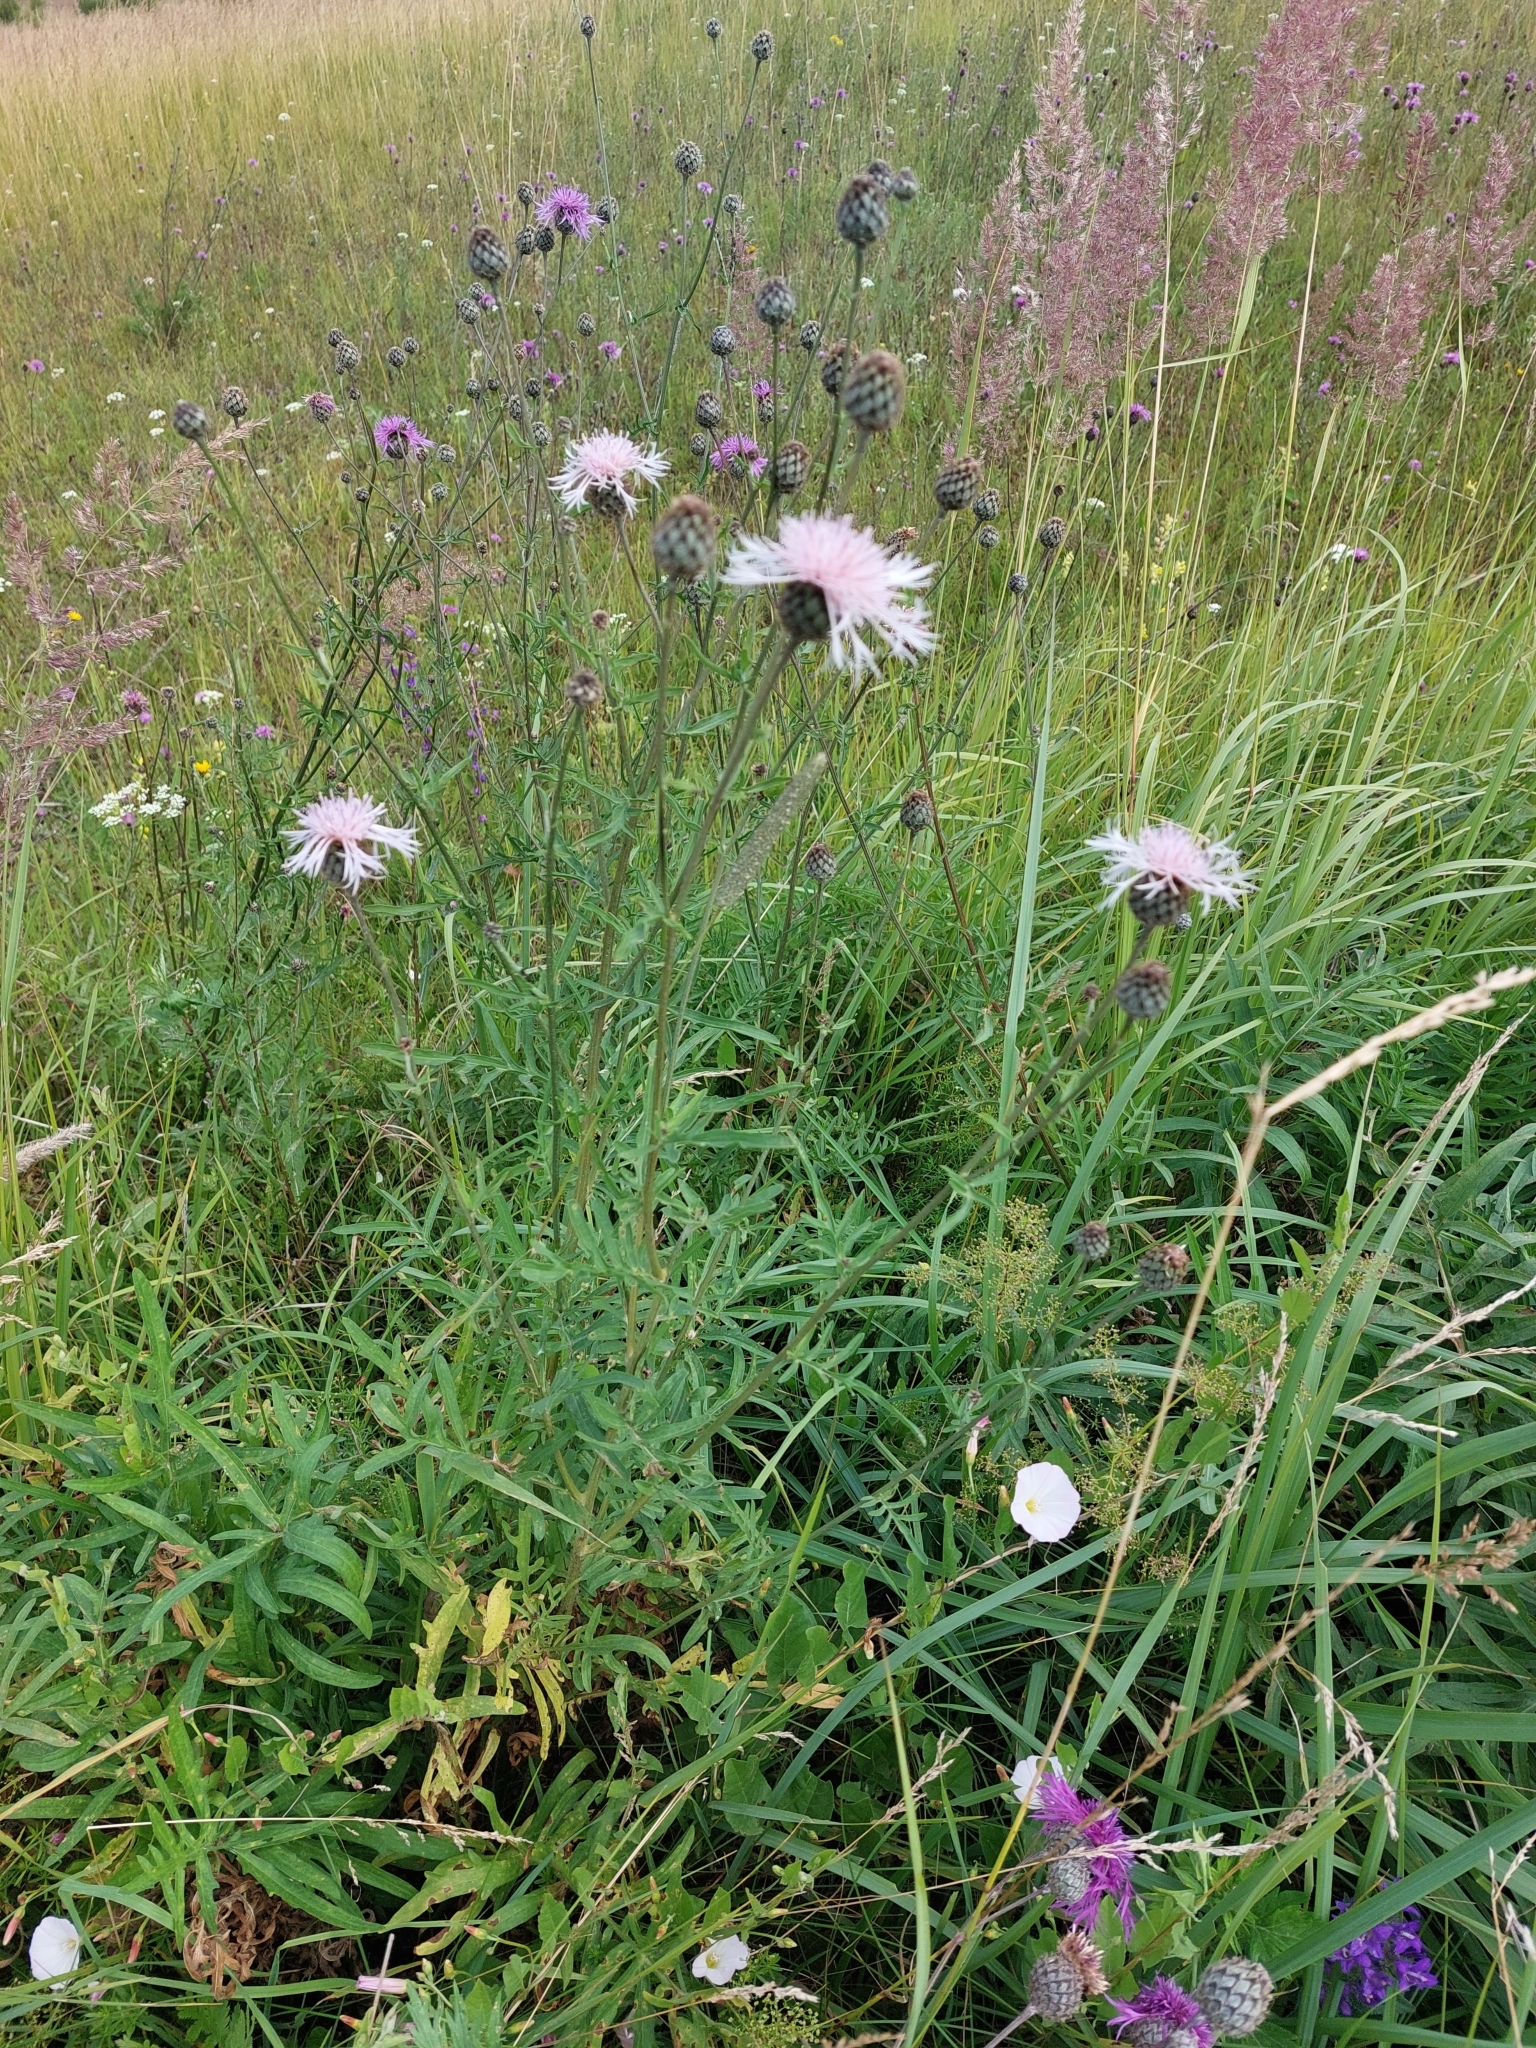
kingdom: Plantae
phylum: Tracheophyta
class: Magnoliopsida
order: Asterales
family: Asteraceae
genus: Centaurea
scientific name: Centaurea scabiosa
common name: Greater knapweed
